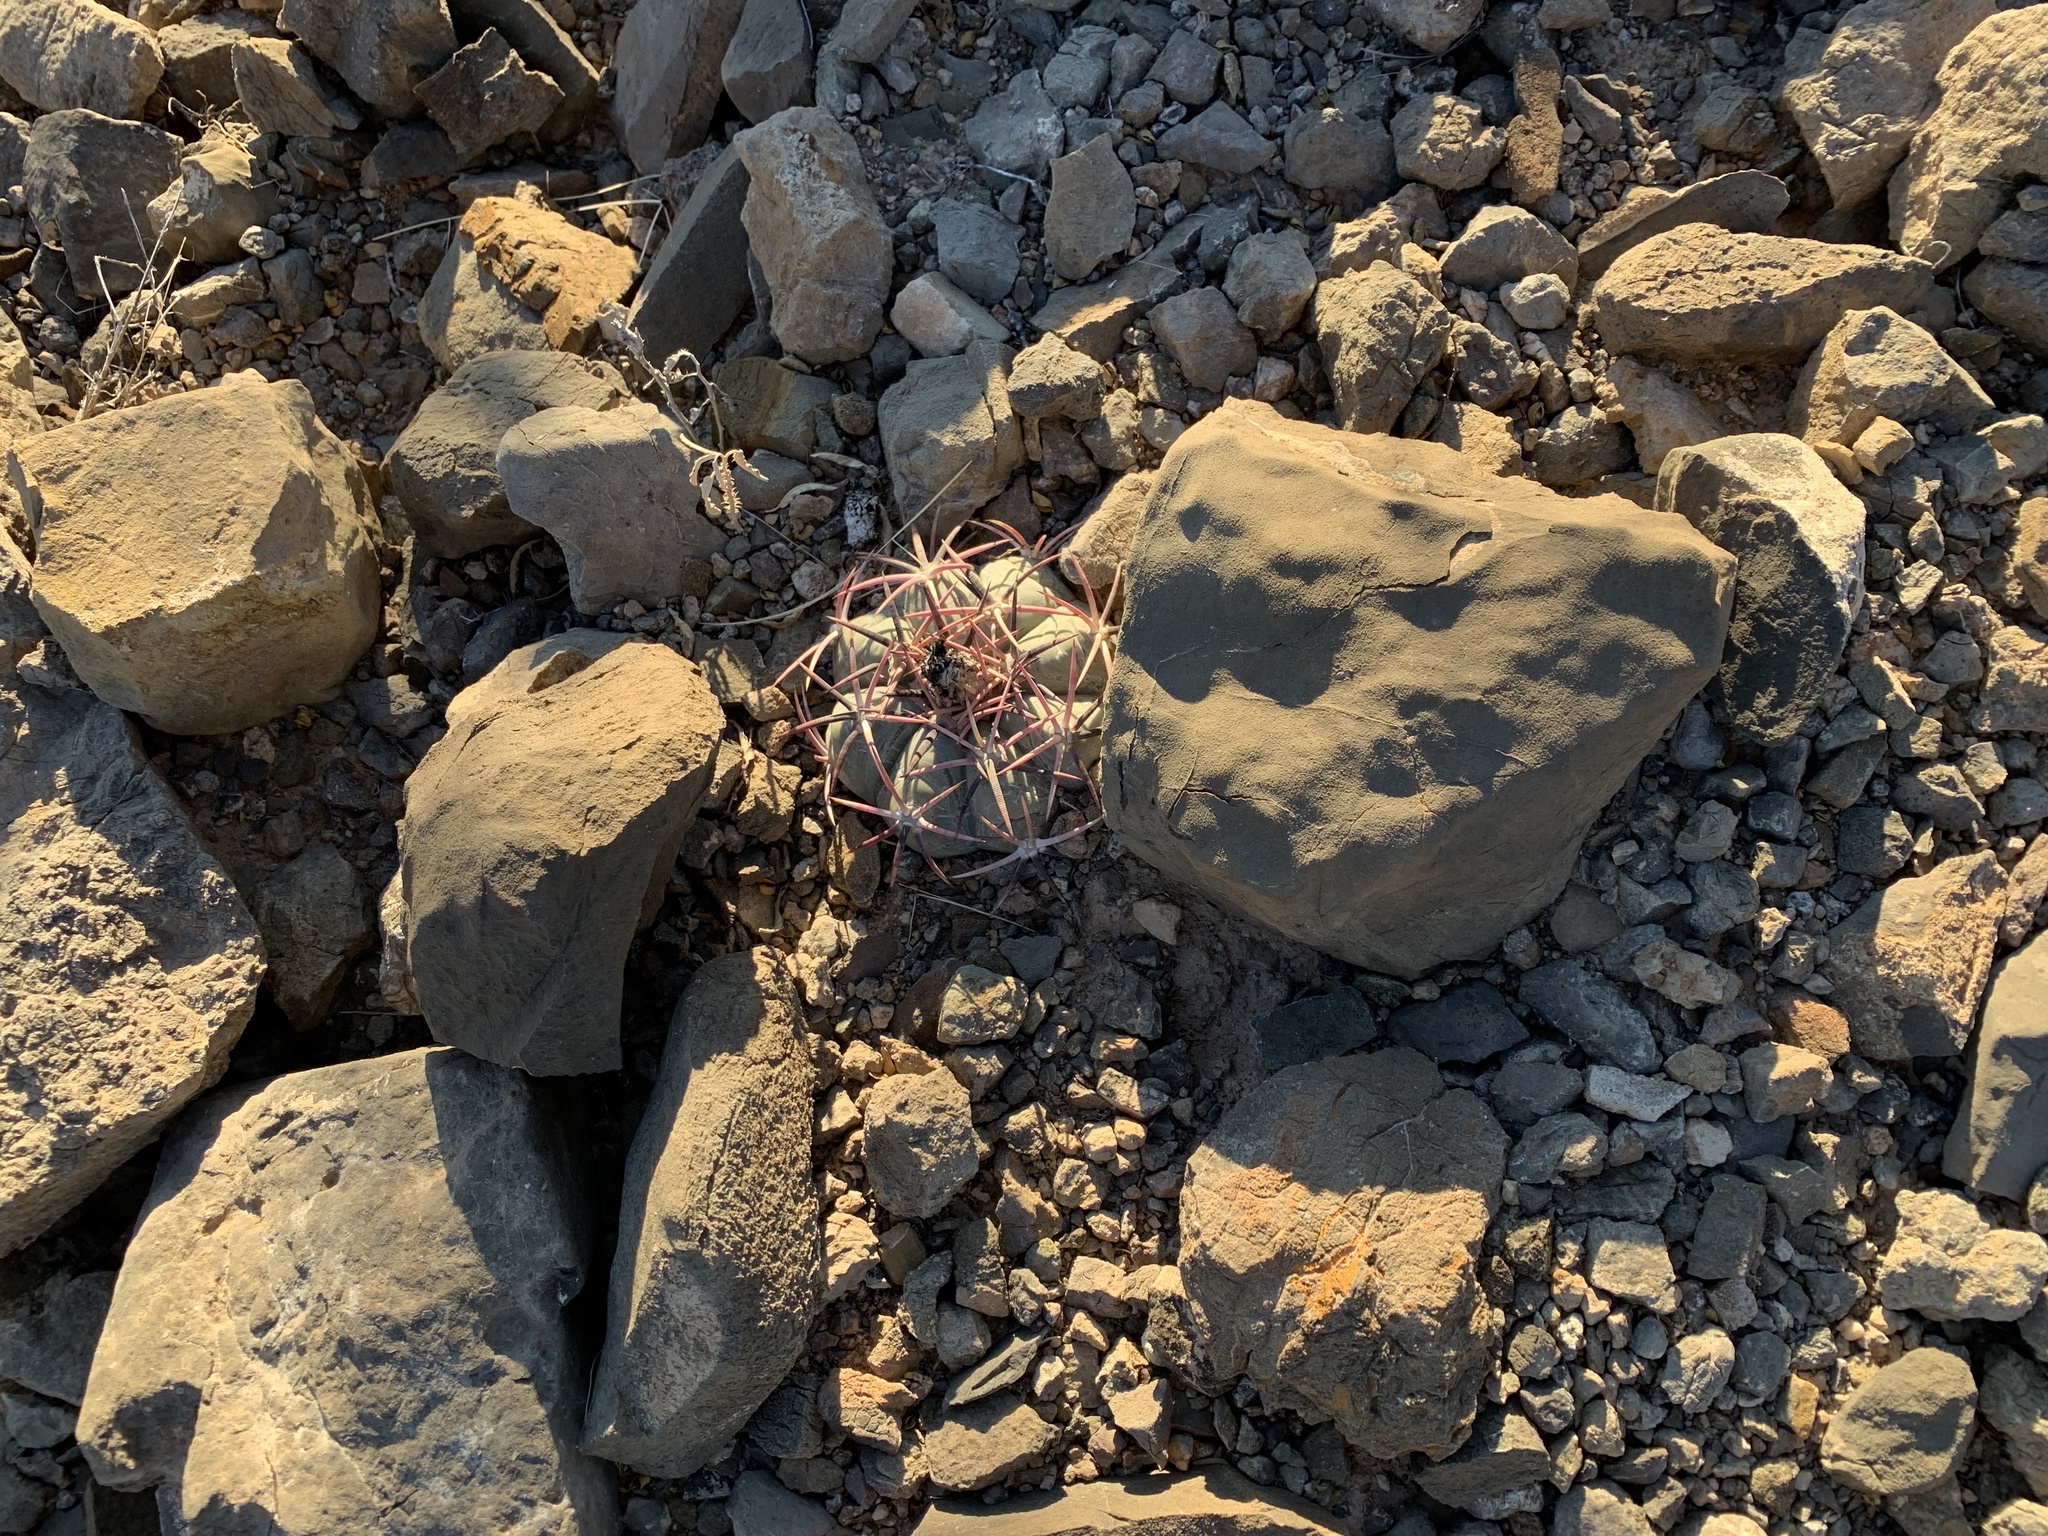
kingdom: Plantae
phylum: Tracheophyta
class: Magnoliopsida
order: Caryophyllales
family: Cactaceae
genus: Echinocactus
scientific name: Echinocactus horizonthalonius
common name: Devilshead
